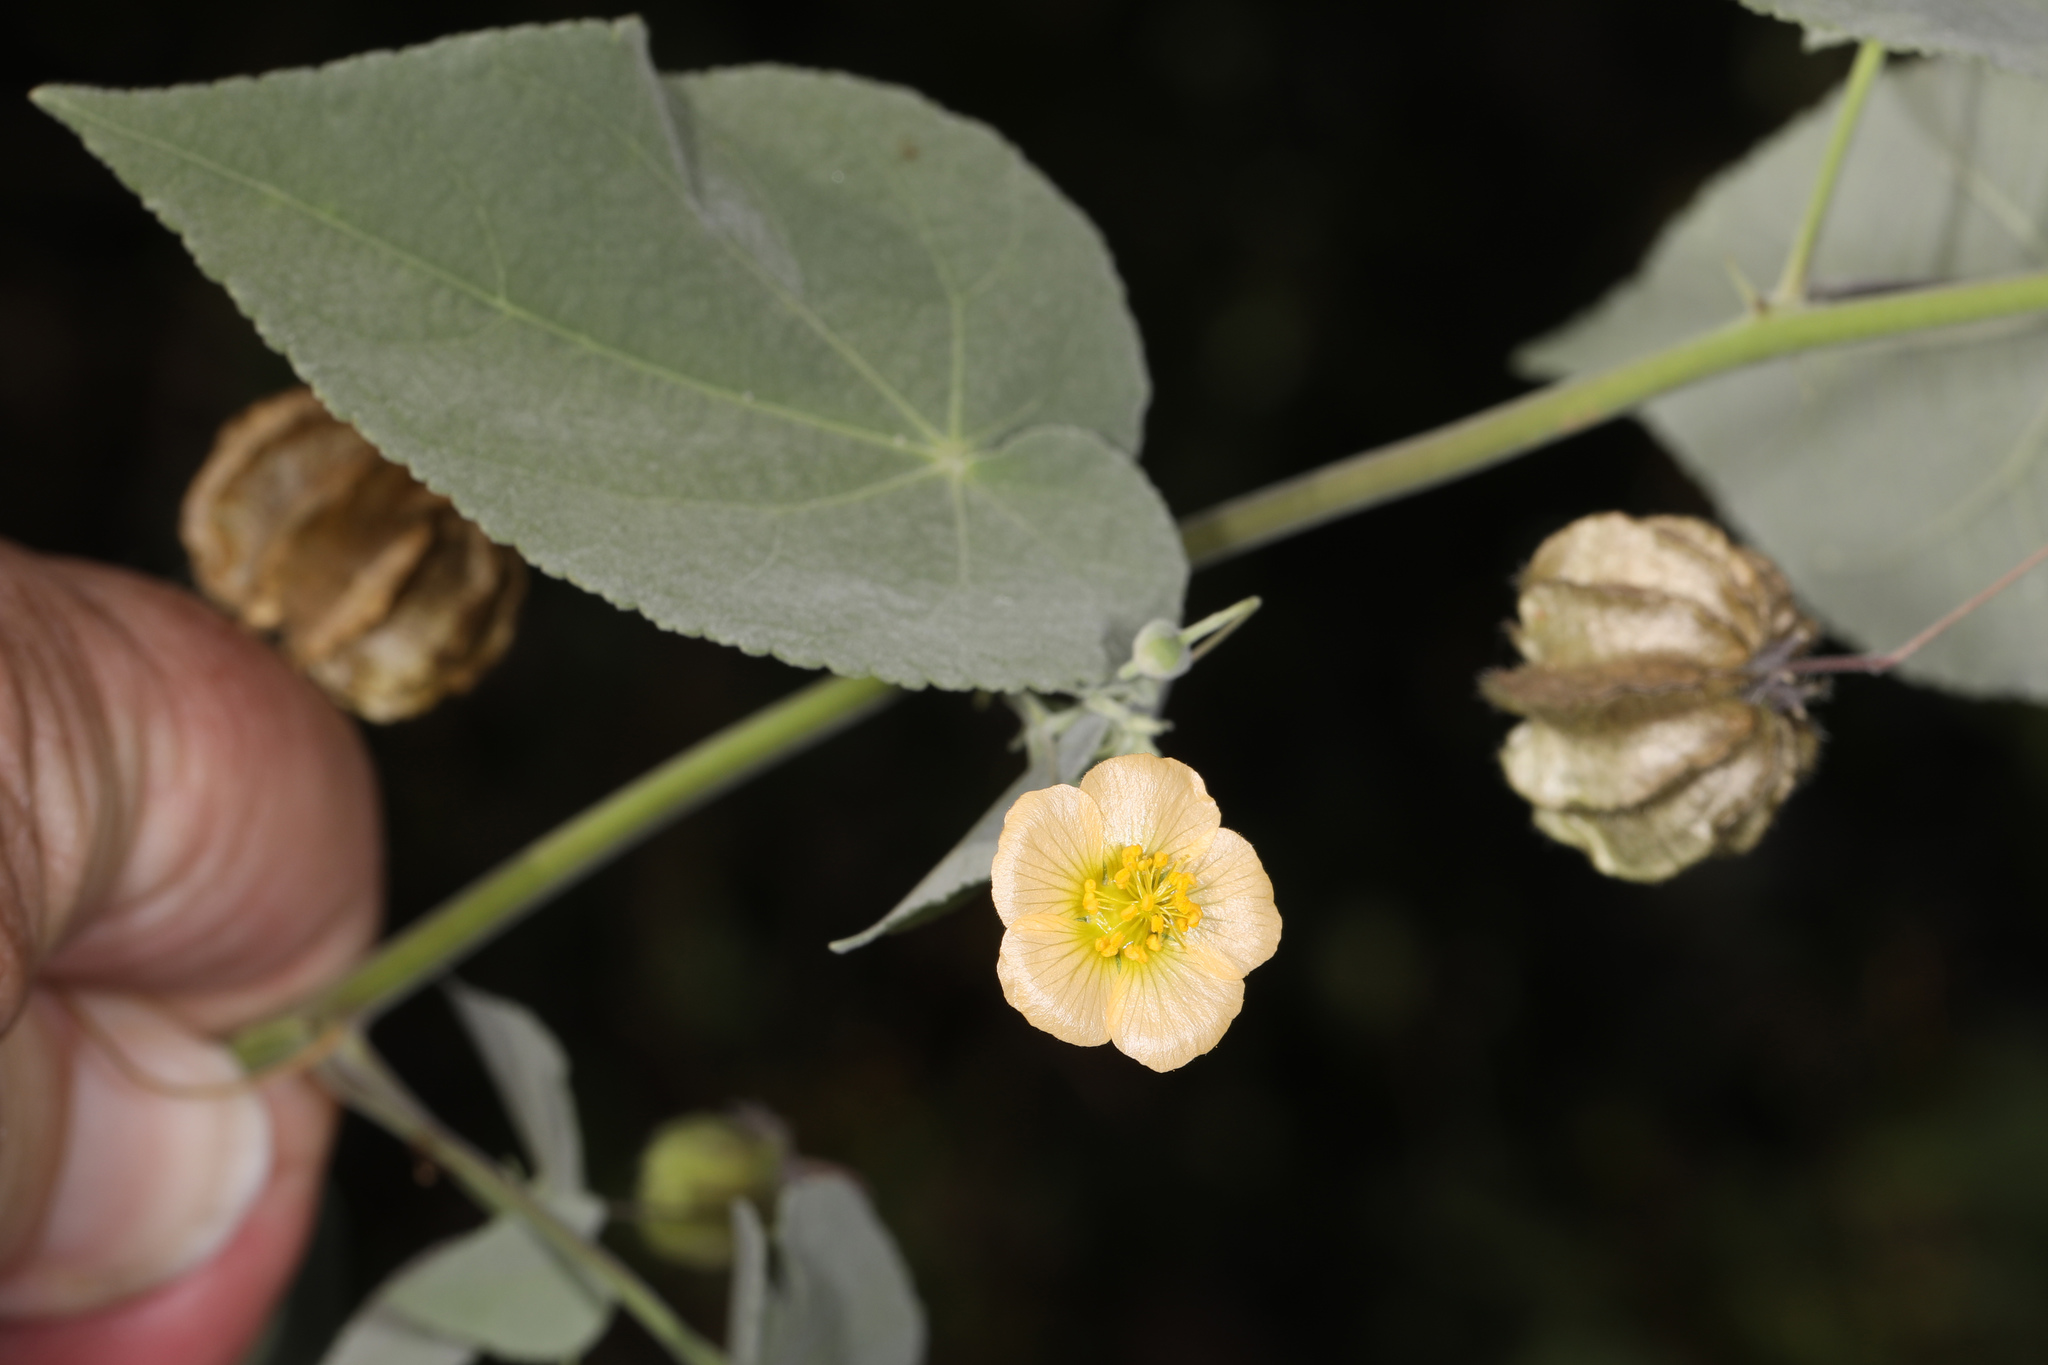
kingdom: Plantae
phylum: Tracheophyta
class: Magnoliopsida
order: Malvales
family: Malvaceae
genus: Herissantia
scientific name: Herissantia crispa
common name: Bladdermallow
